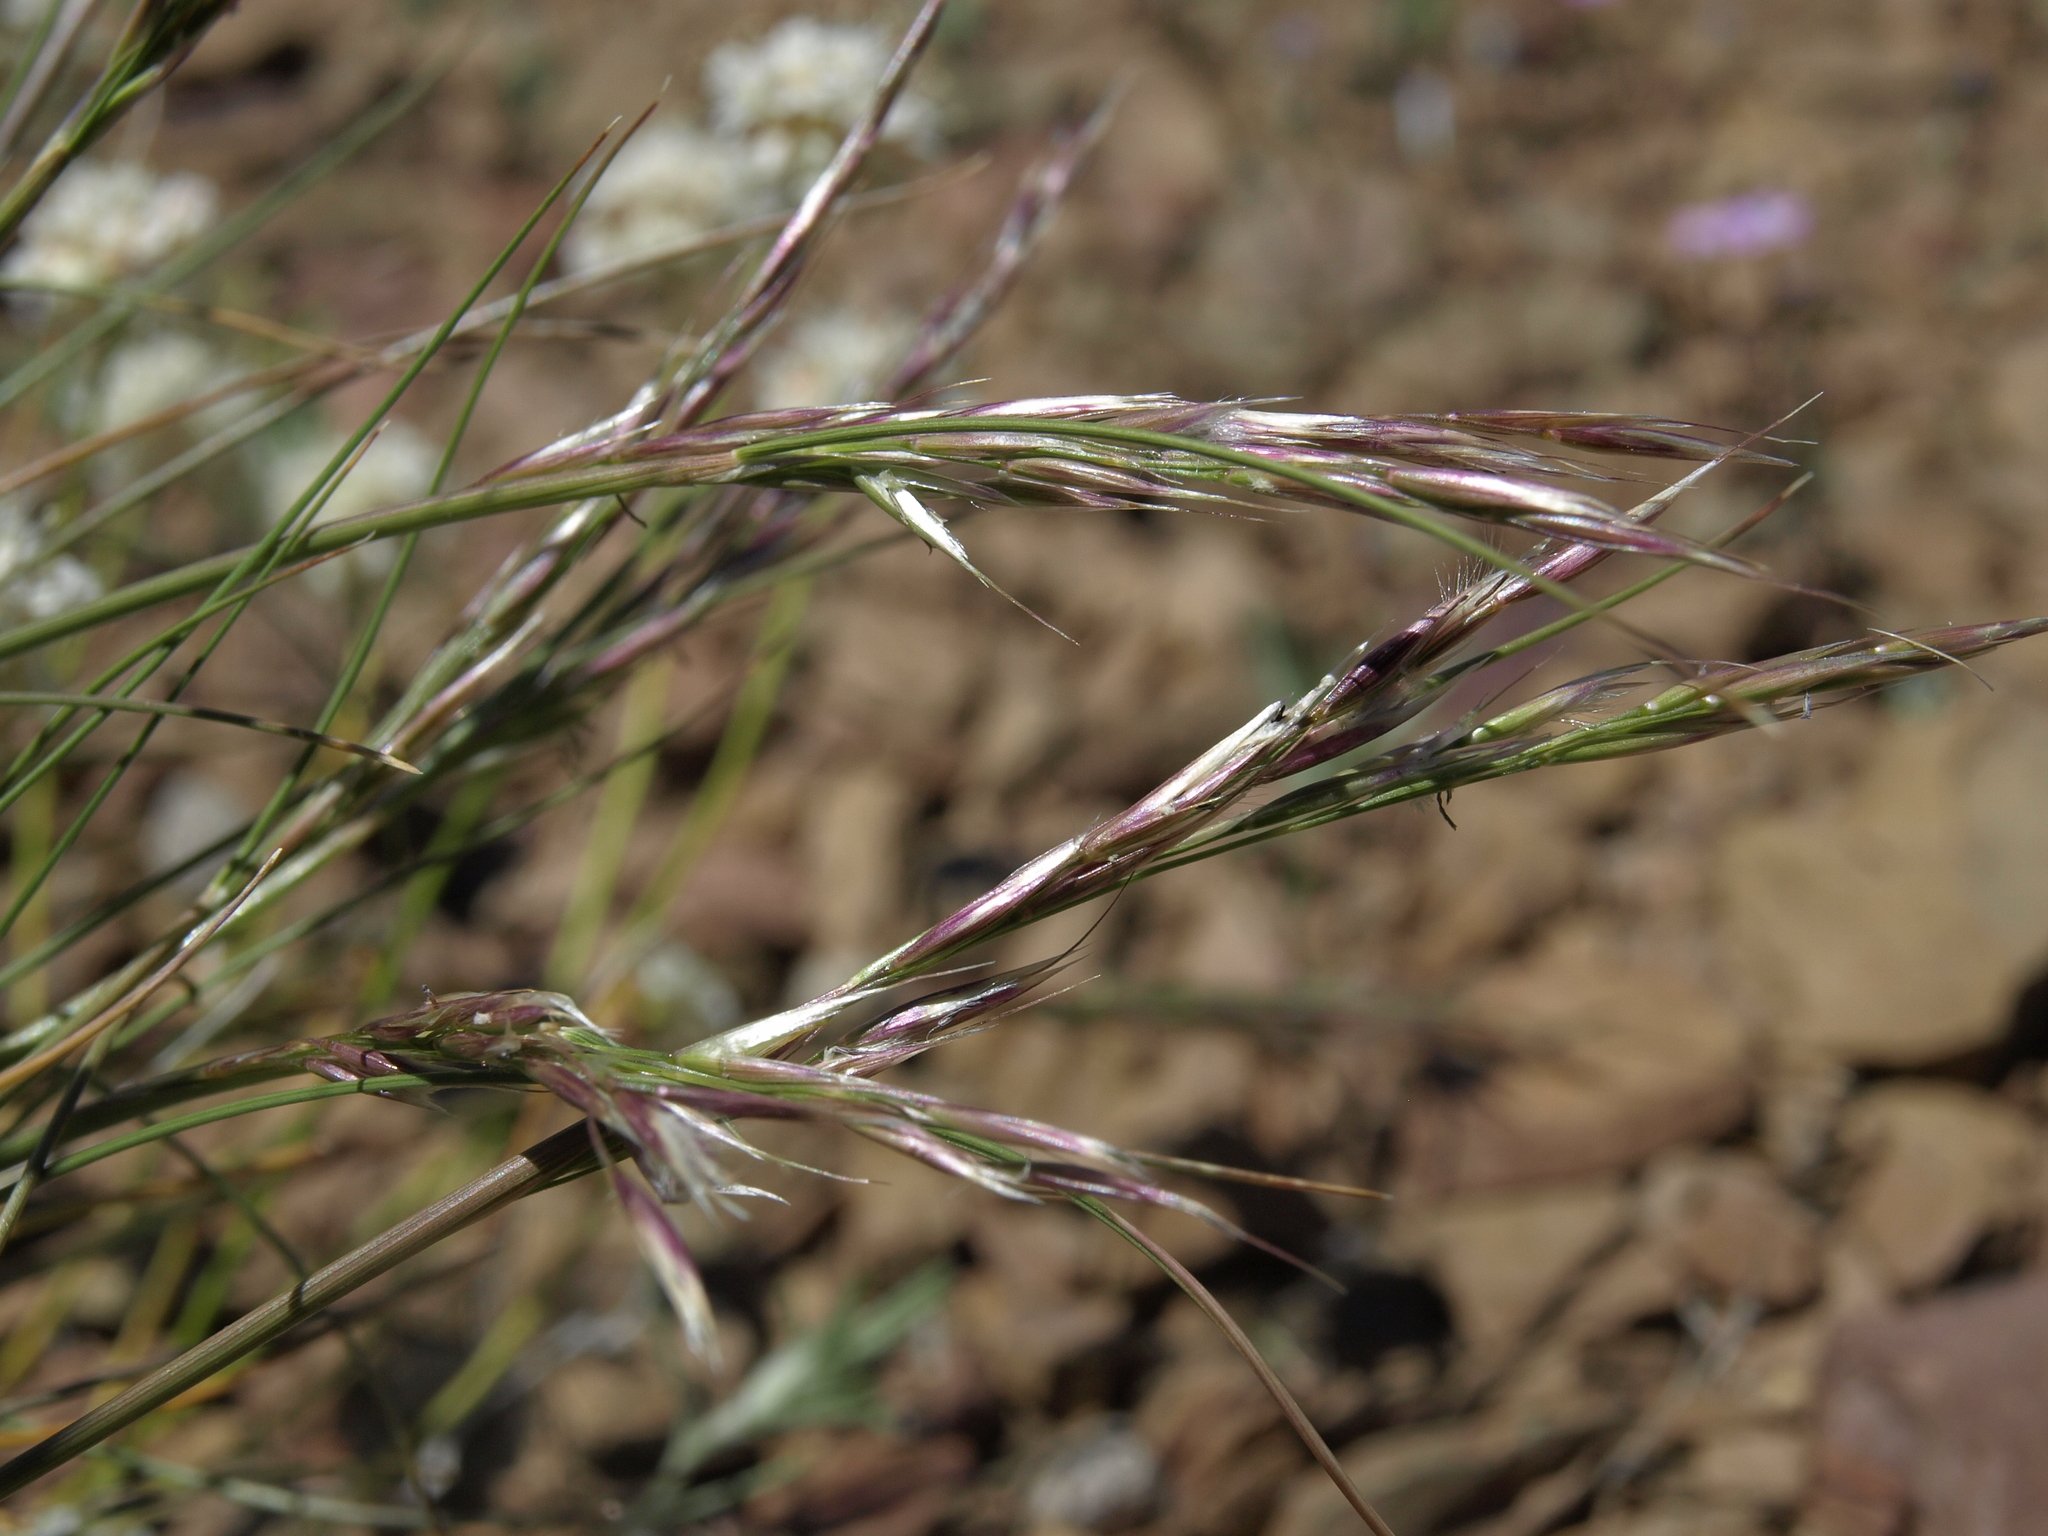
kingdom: Plantae
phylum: Tracheophyta
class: Liliopsida
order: Poales
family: Poaceae
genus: Eriocoma
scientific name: Eriocoma webberi
